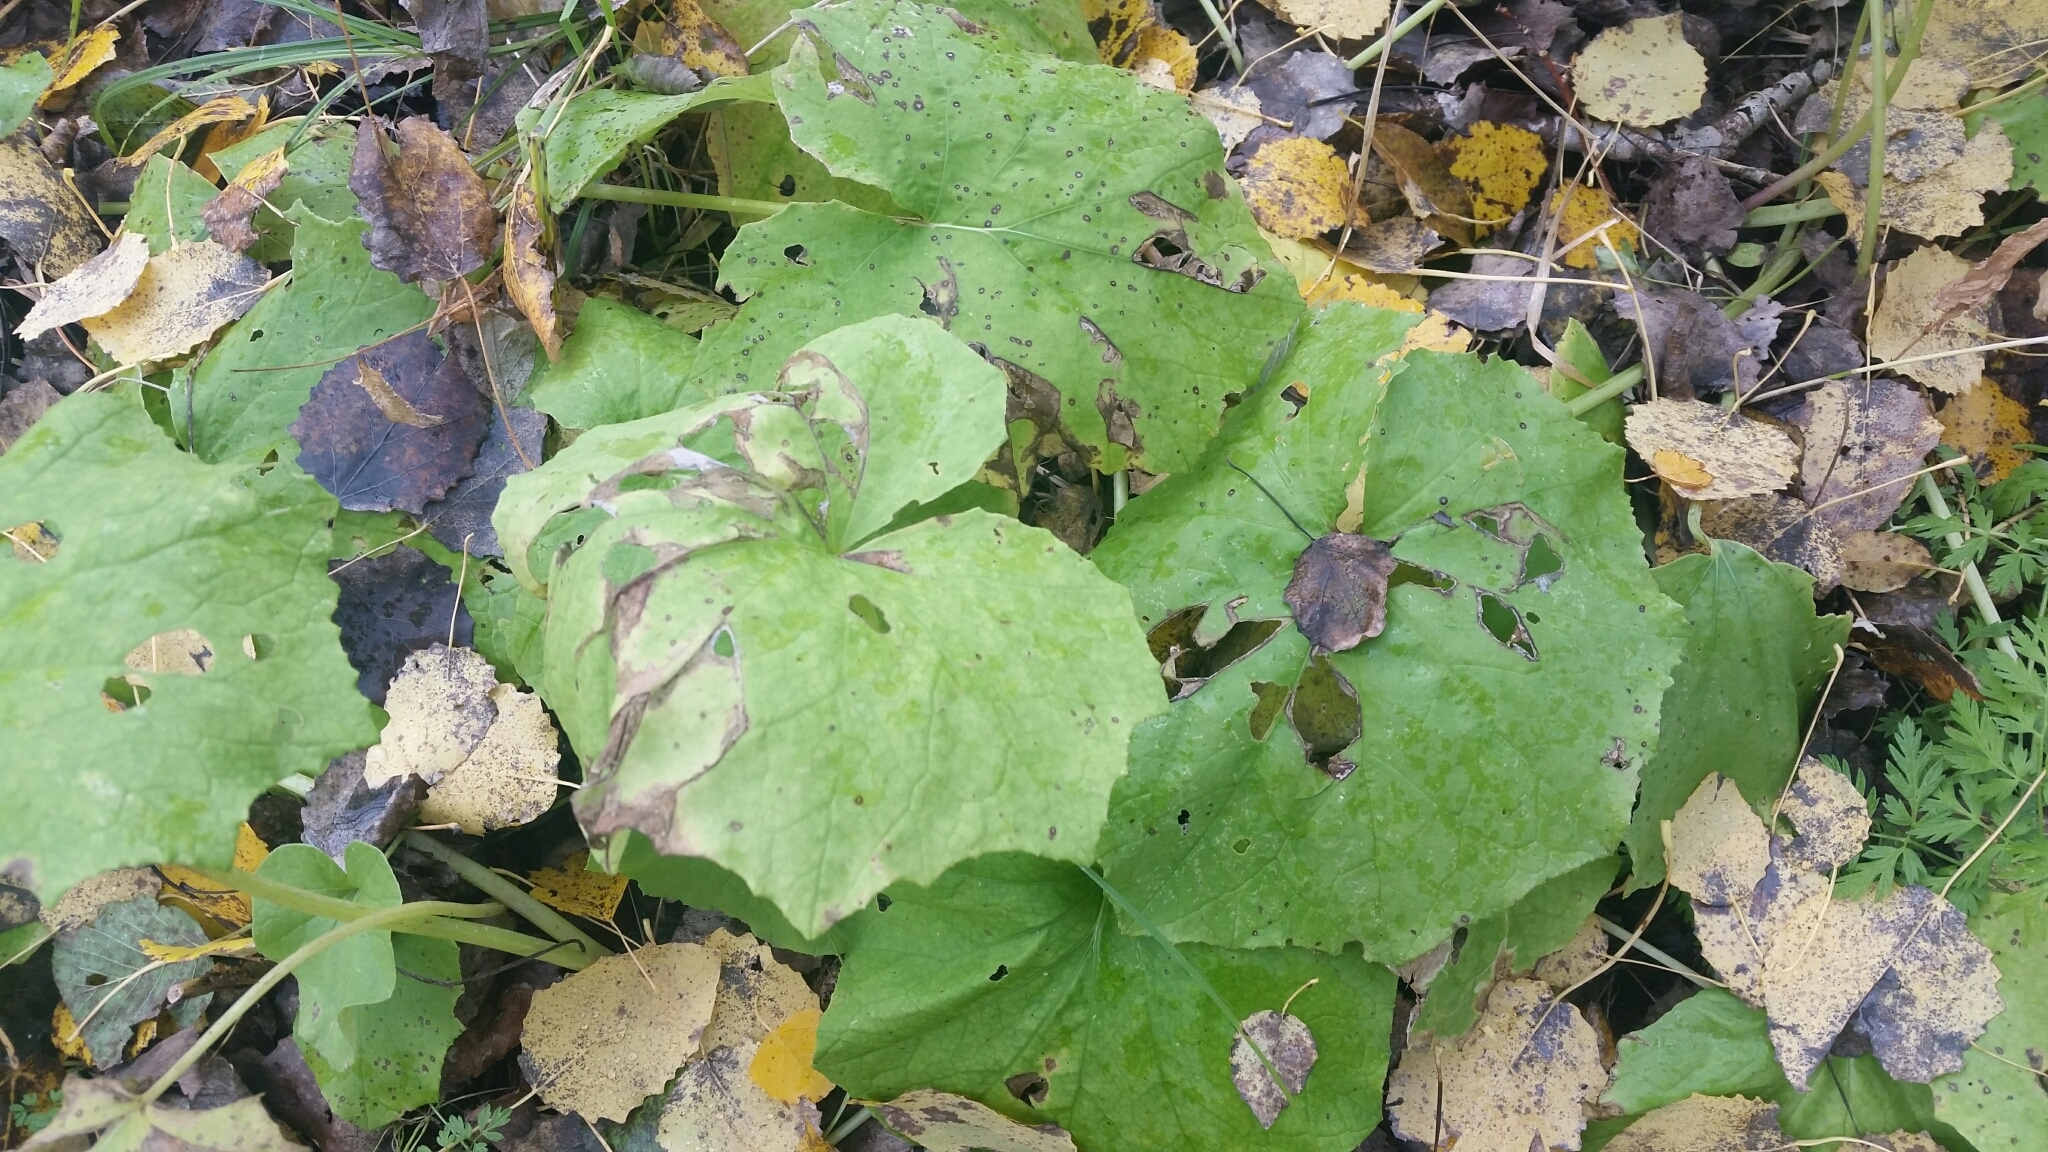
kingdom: Plantae
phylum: Tracheophyta
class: Magnoliopsida
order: Asterales
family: Asteraceae
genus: Tussilago
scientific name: Tussilago farfara
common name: Coltsfoot
